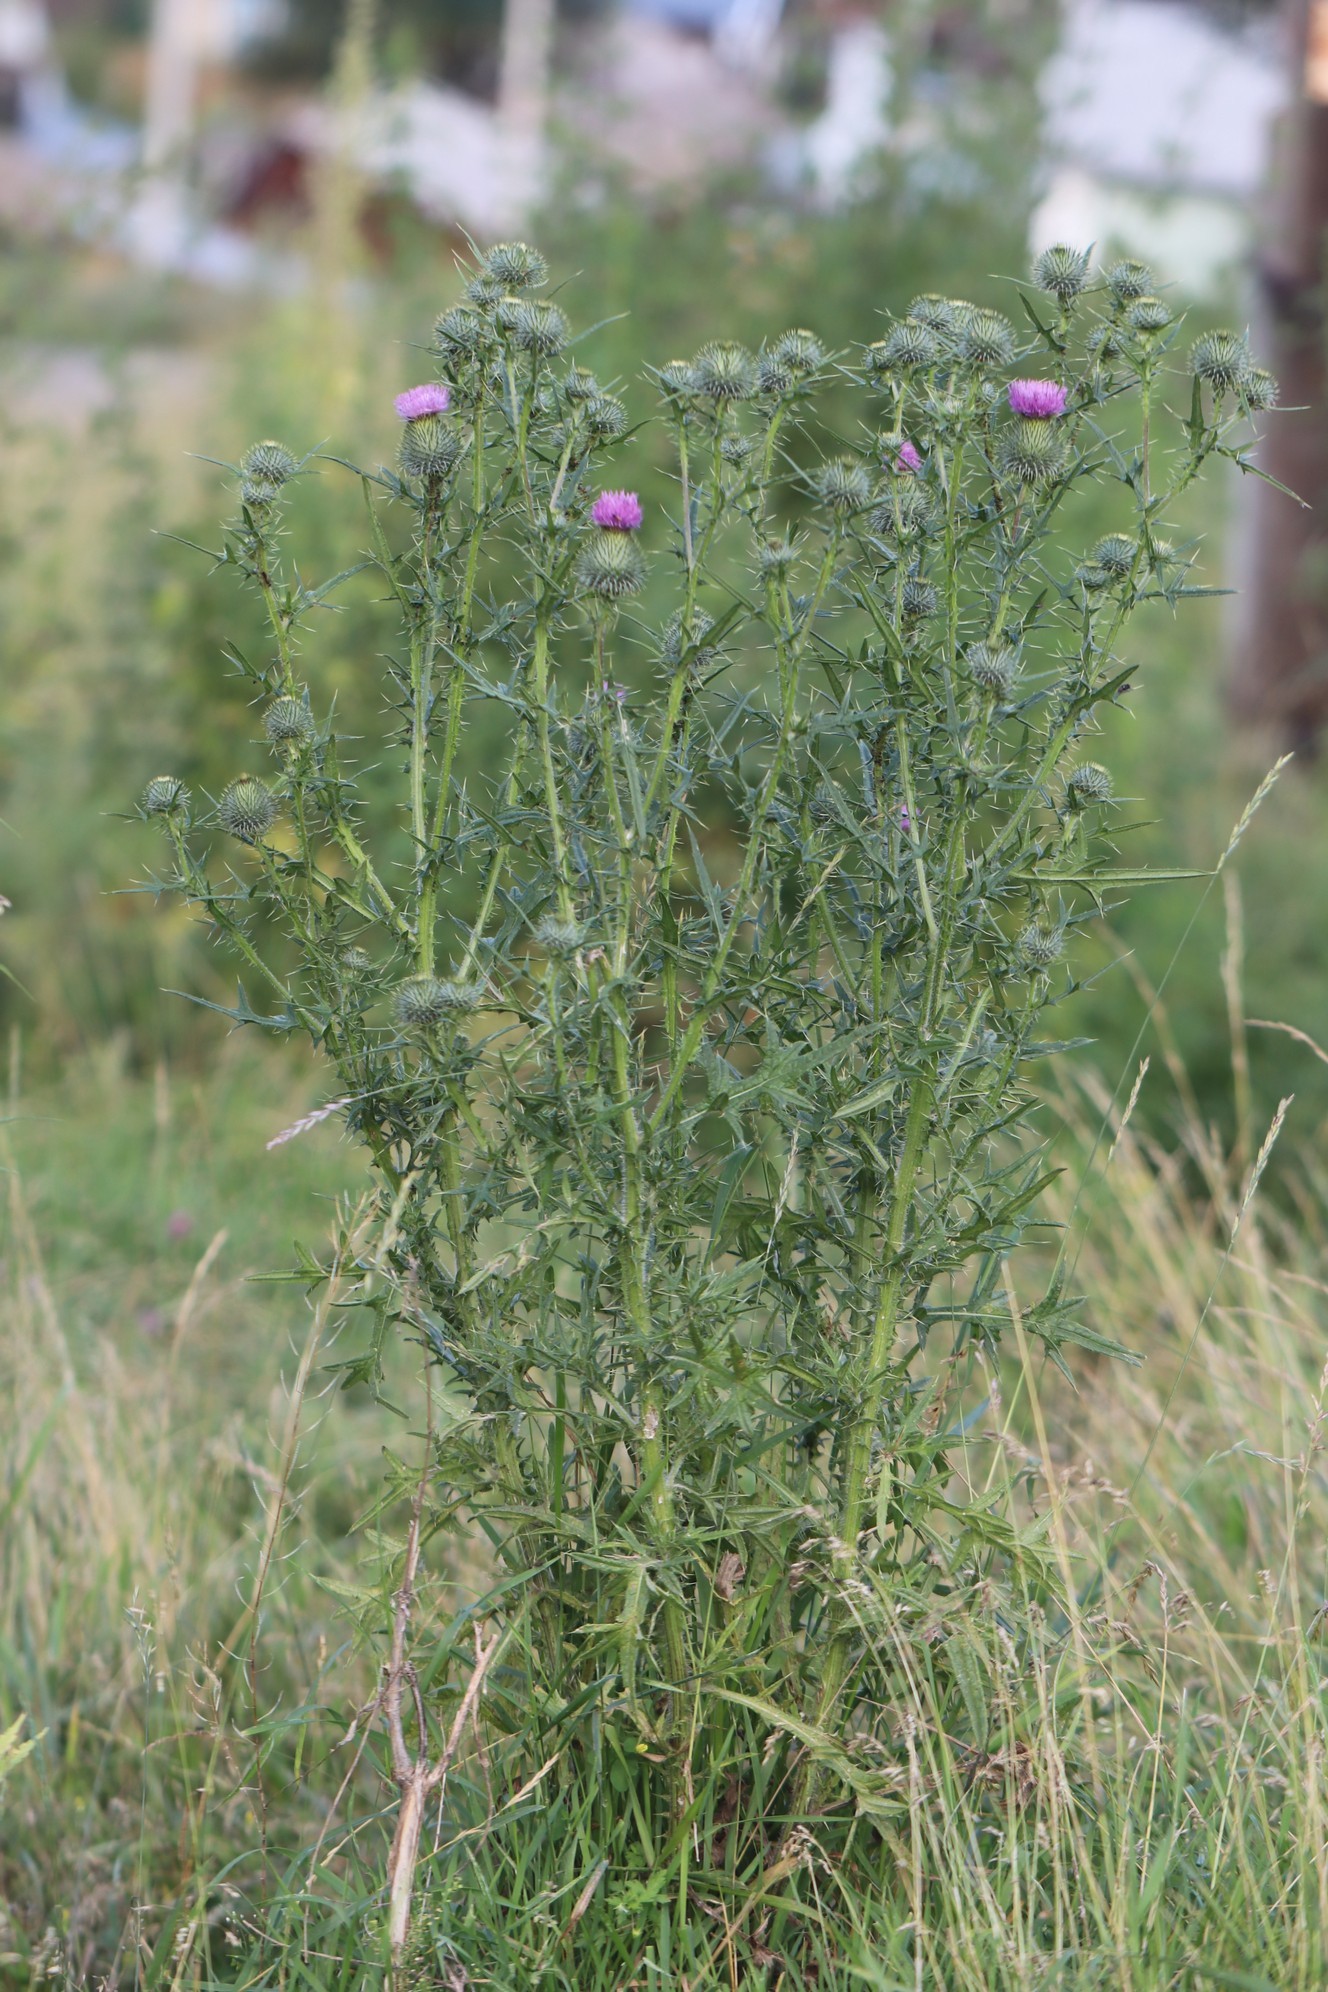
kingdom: Plantae
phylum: Tracheophyta
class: Magnoliopsida
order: Asterales
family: Asteraceae
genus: Cirsium
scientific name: Cirsium vulgare
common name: Bull thistle
